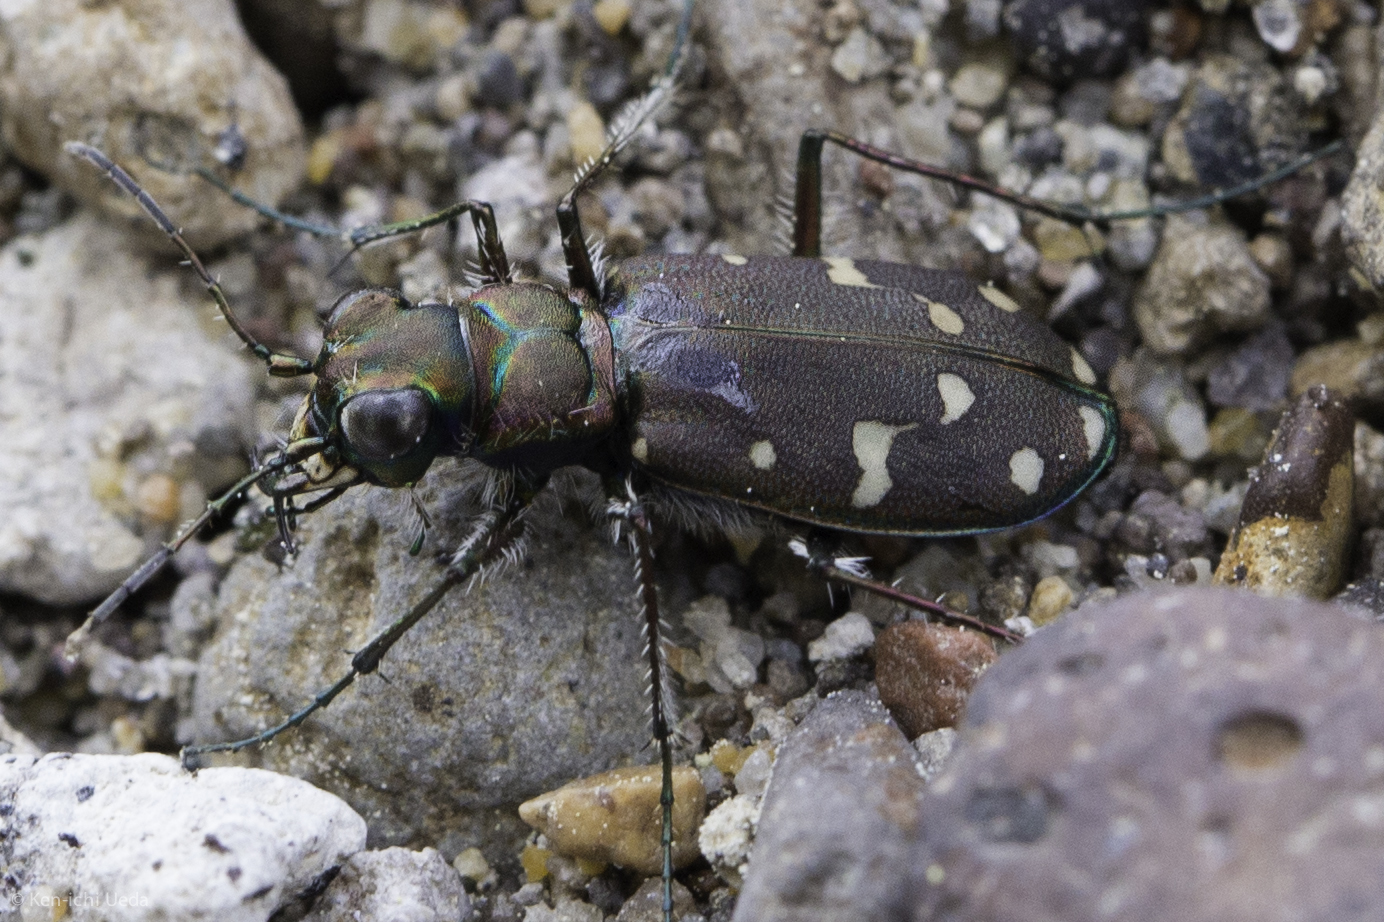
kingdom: Animalia
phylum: Arthropoda
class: Insecta
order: Coleoptera
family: Carabidae
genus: Cicindela
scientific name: Cicindela oregona
